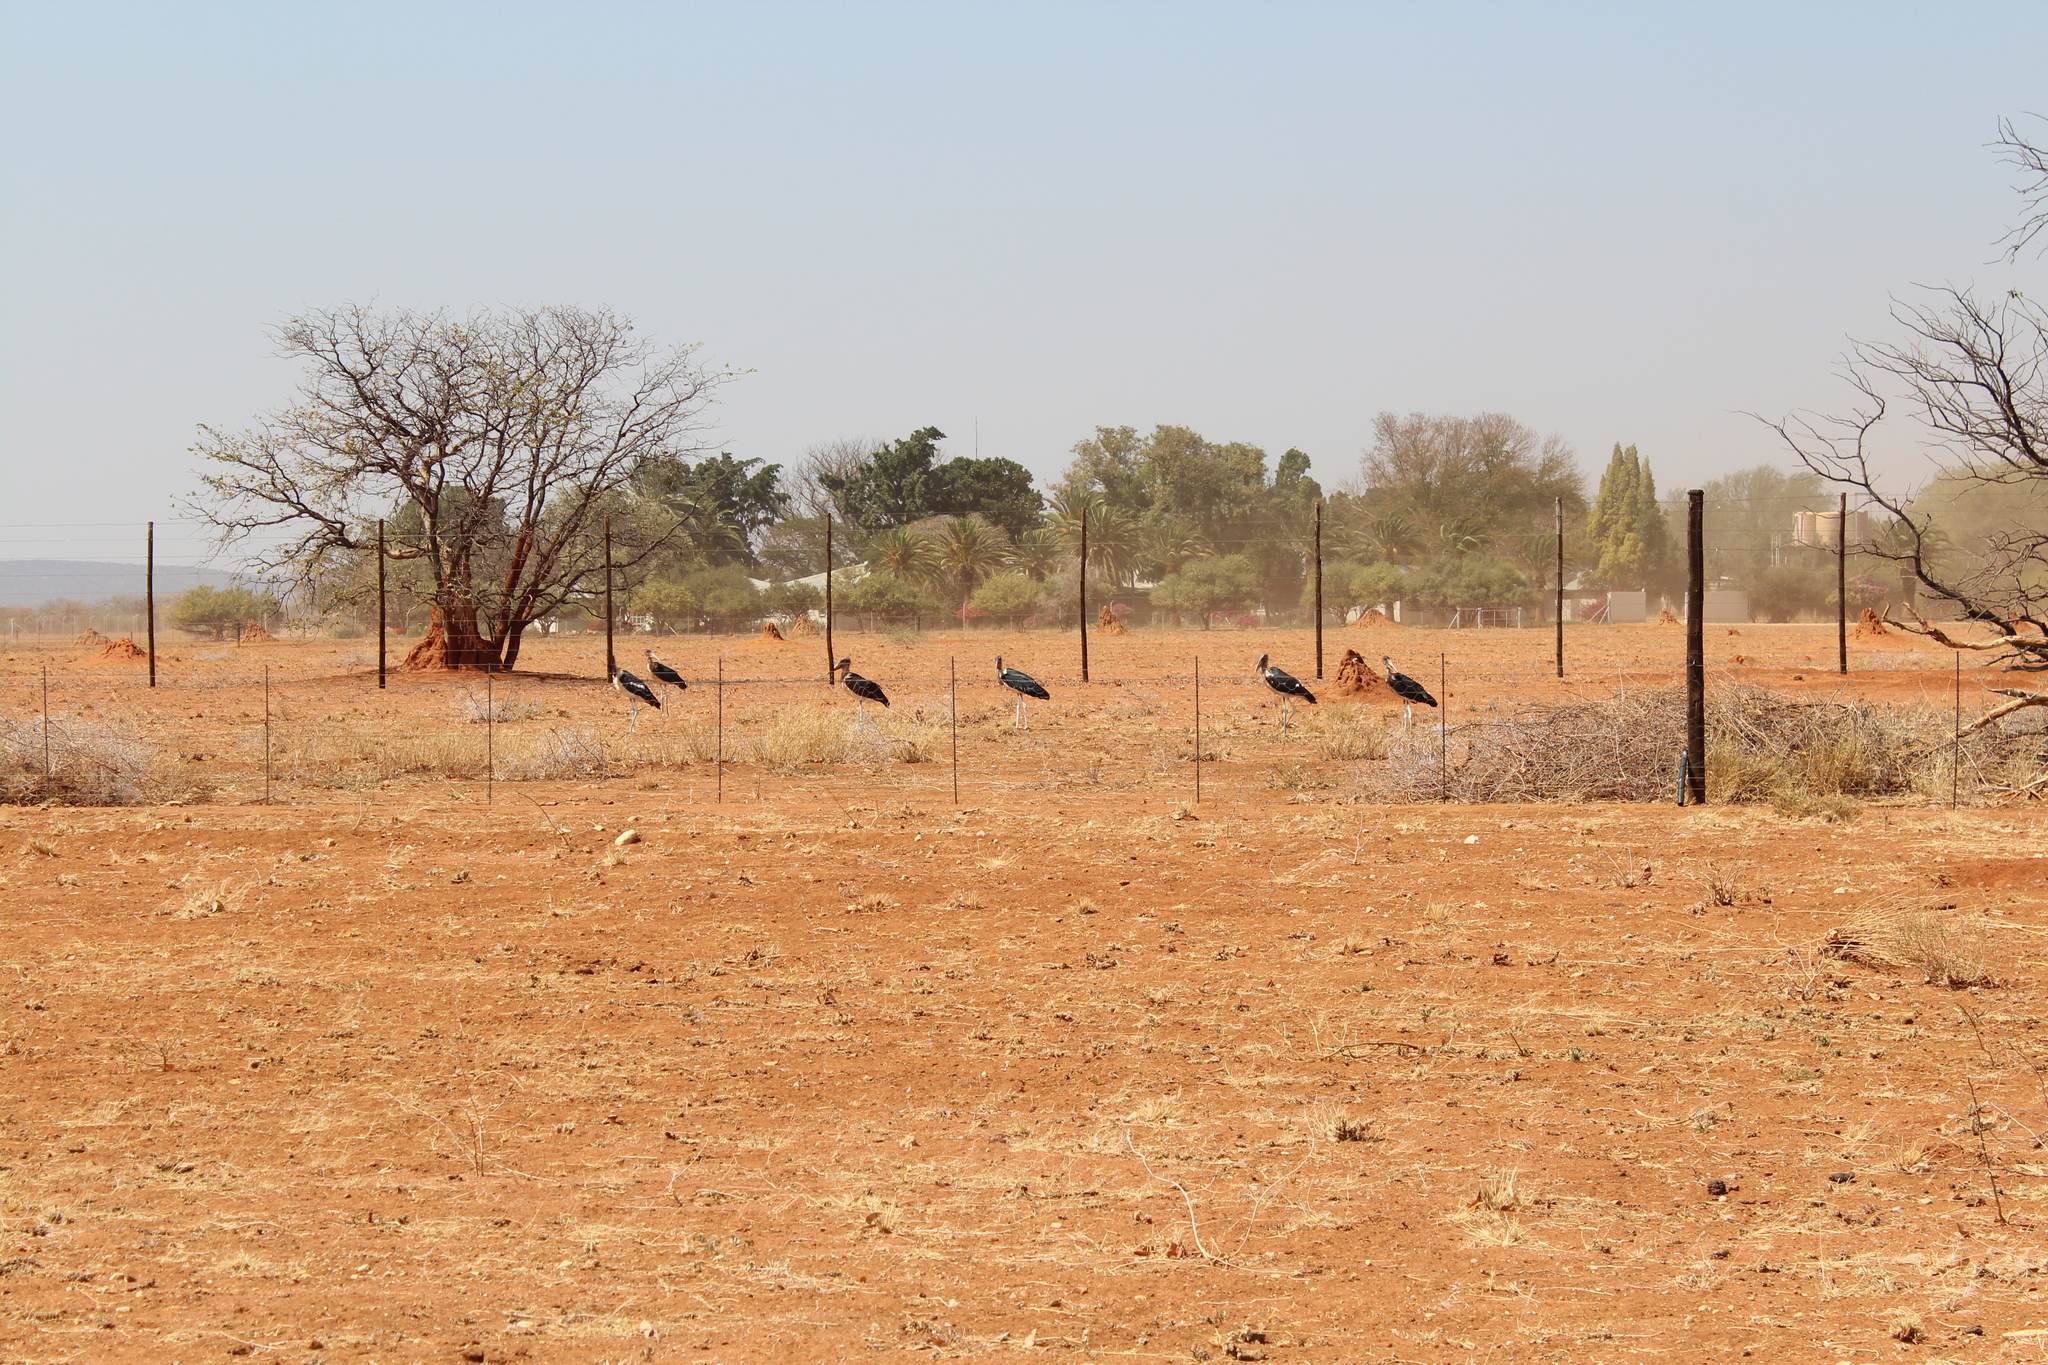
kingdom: Animalia
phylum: Chordata
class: Aves
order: Ciconiiformes
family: Ciconiidae
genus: Leptoptilos
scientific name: Leptoptilos crumenifer
